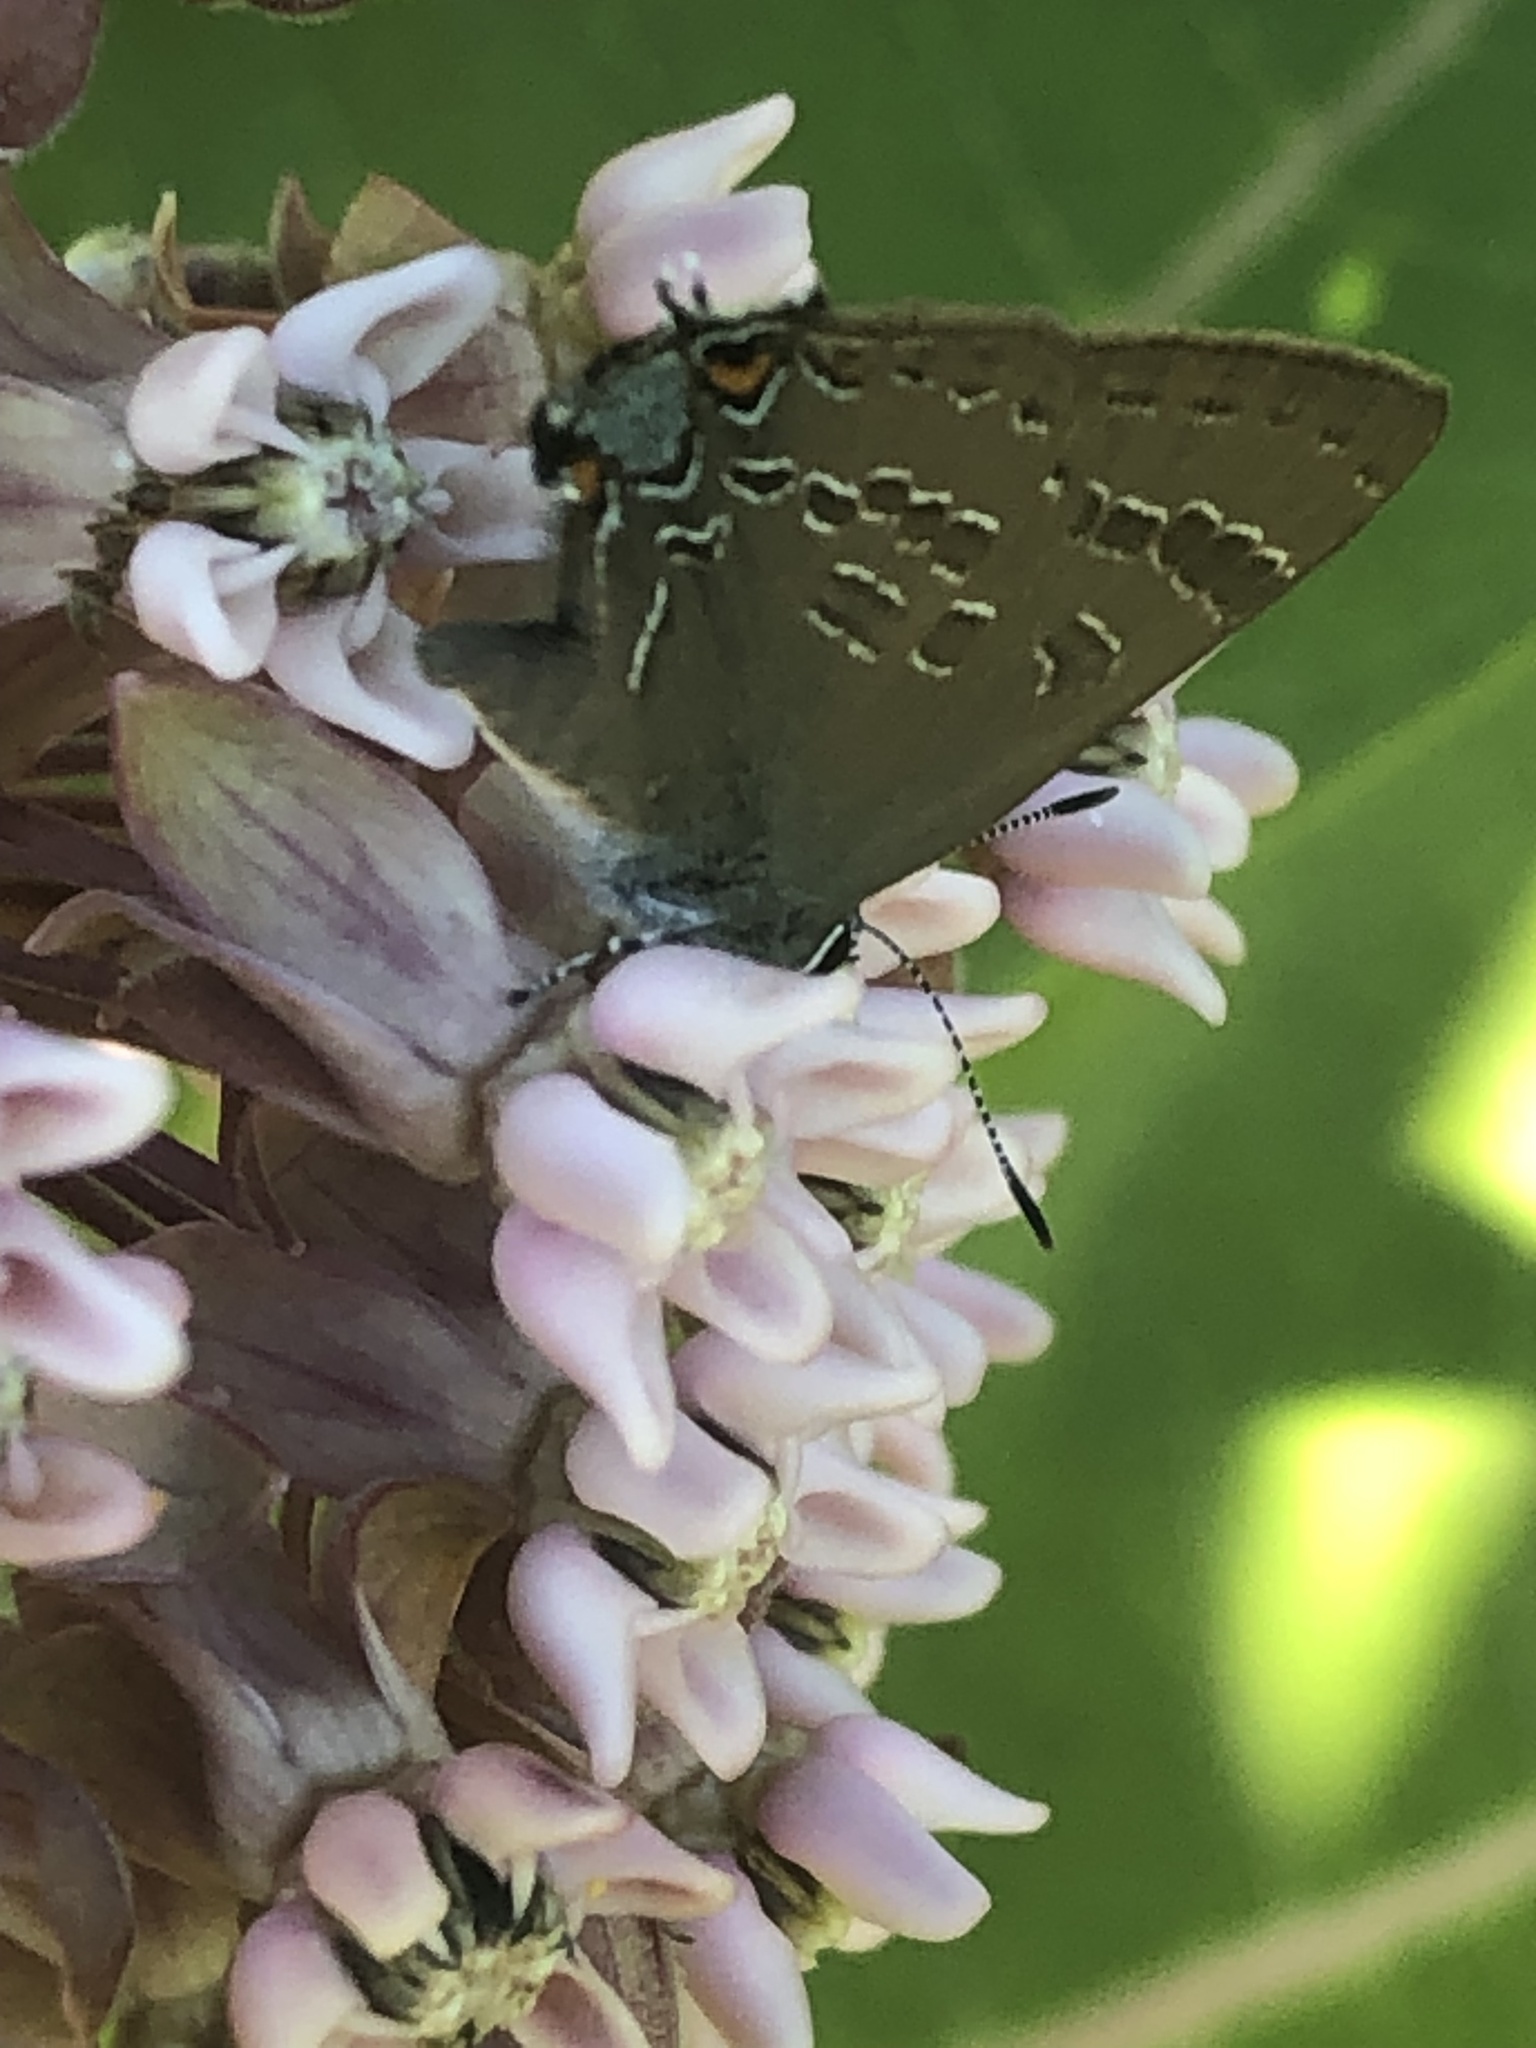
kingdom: Animalia
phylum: Arthropoda
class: Insecta
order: Lepidoptera
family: Lycaenidae
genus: Strymon
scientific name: Strymon caryaevorus
